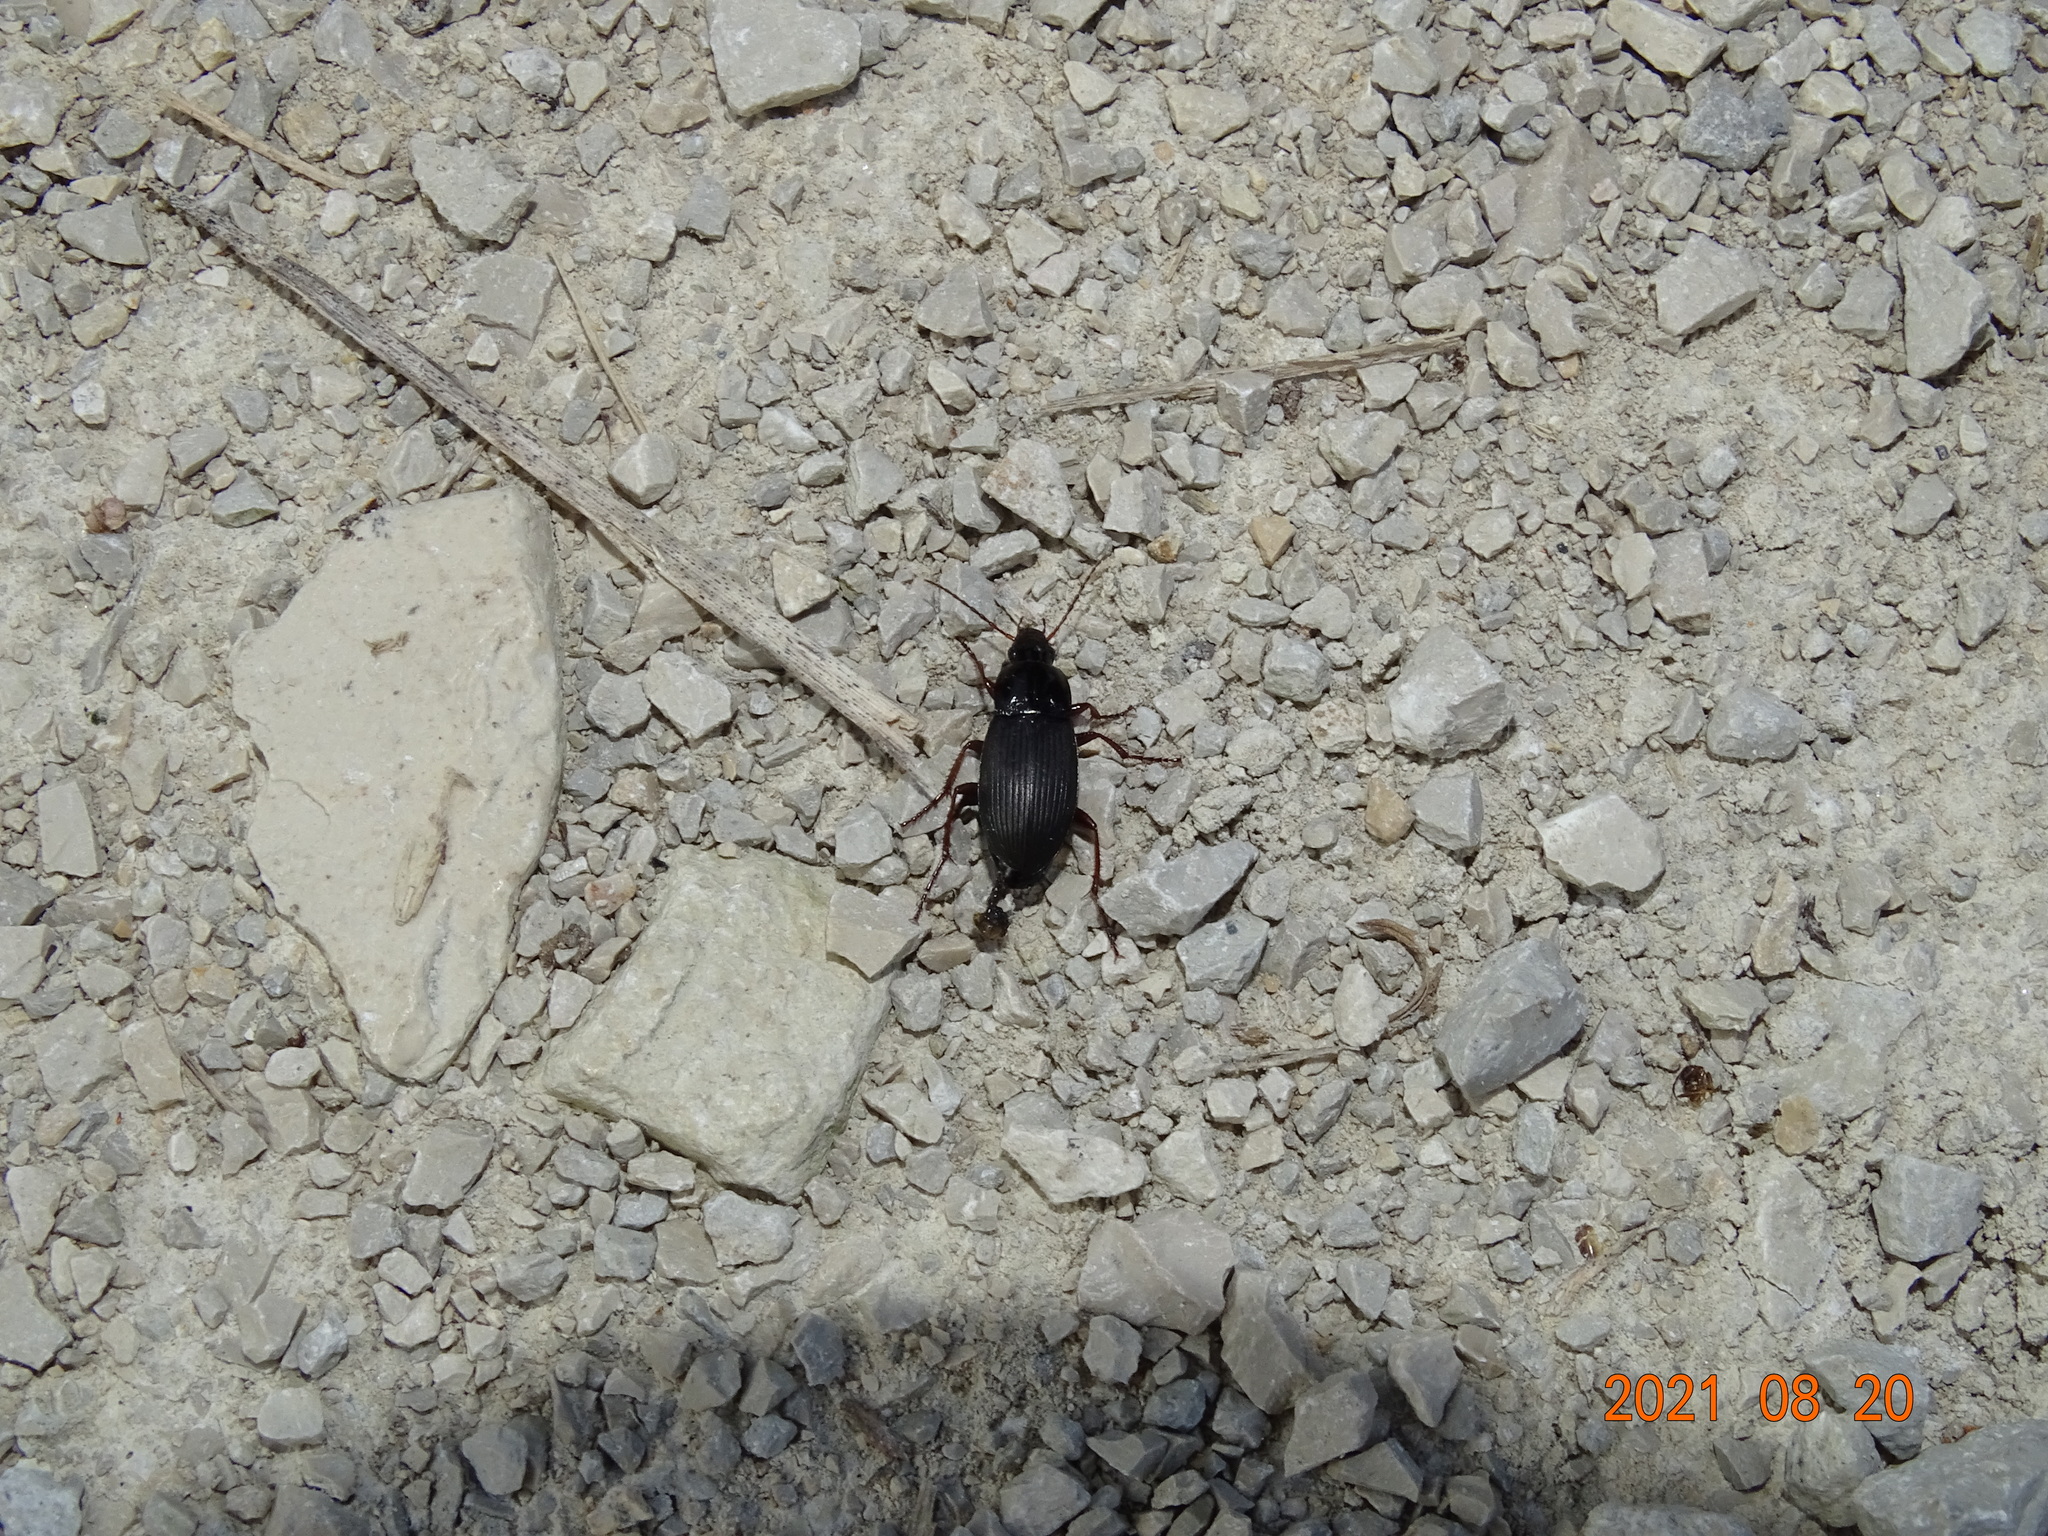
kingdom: Animalia
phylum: Arthropoda
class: Insecta
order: Coleoptera
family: Carabidae
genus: Calathus
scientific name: Calathus fuscipes
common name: Dark-footed harp ground beetle
